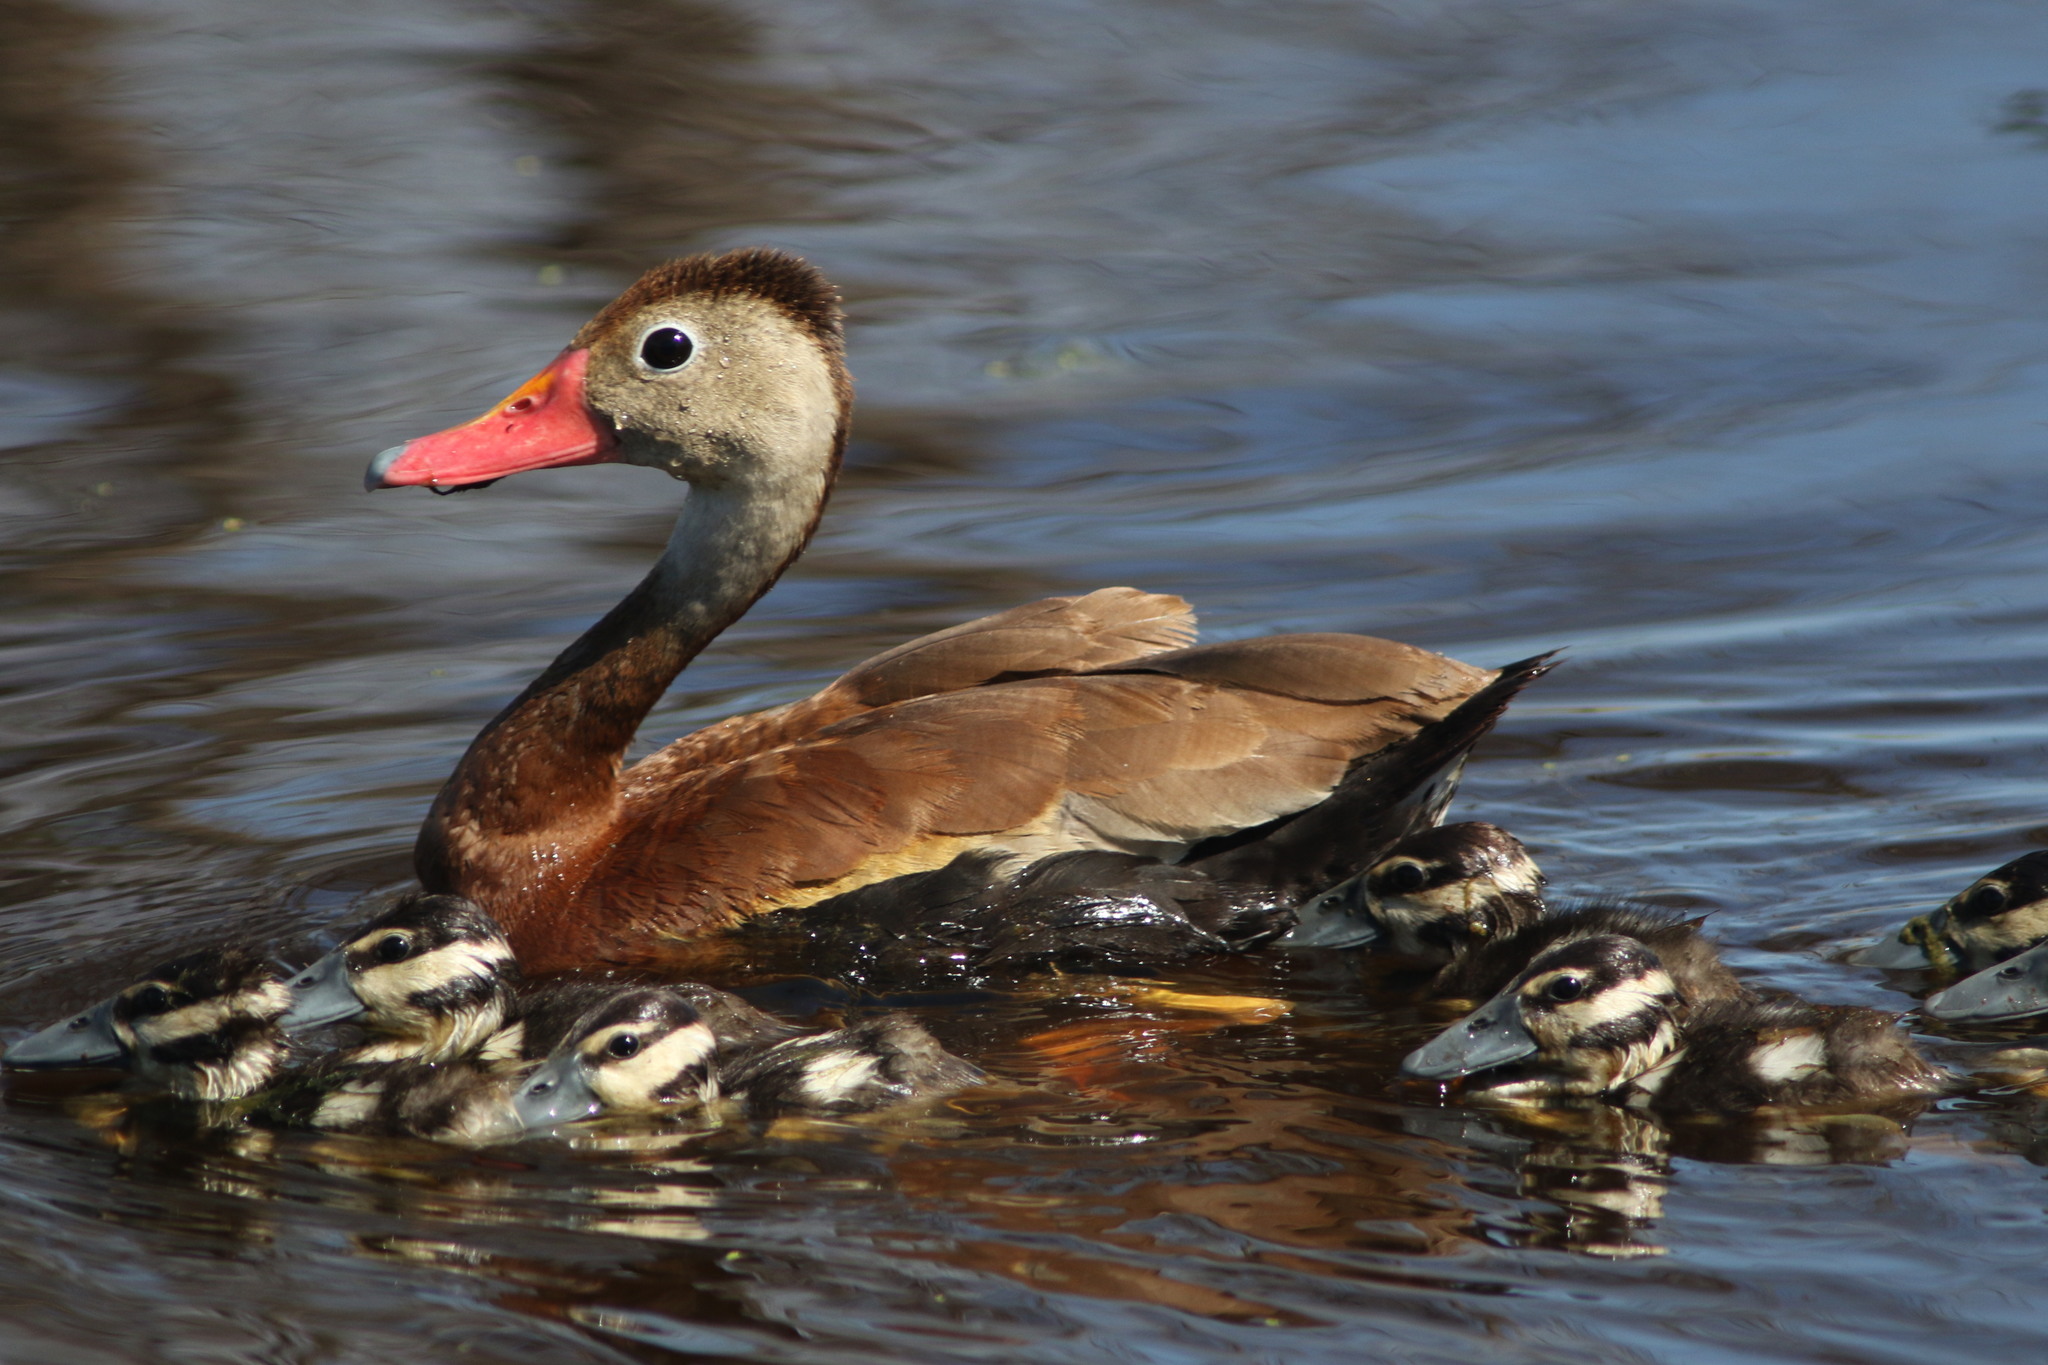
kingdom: Animalia
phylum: Chordata
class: Aves
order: Anseriformes
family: Anatidae
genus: Dendrocygna
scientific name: Dendrocygna autumnalis
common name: Black-bellied whistling duck
